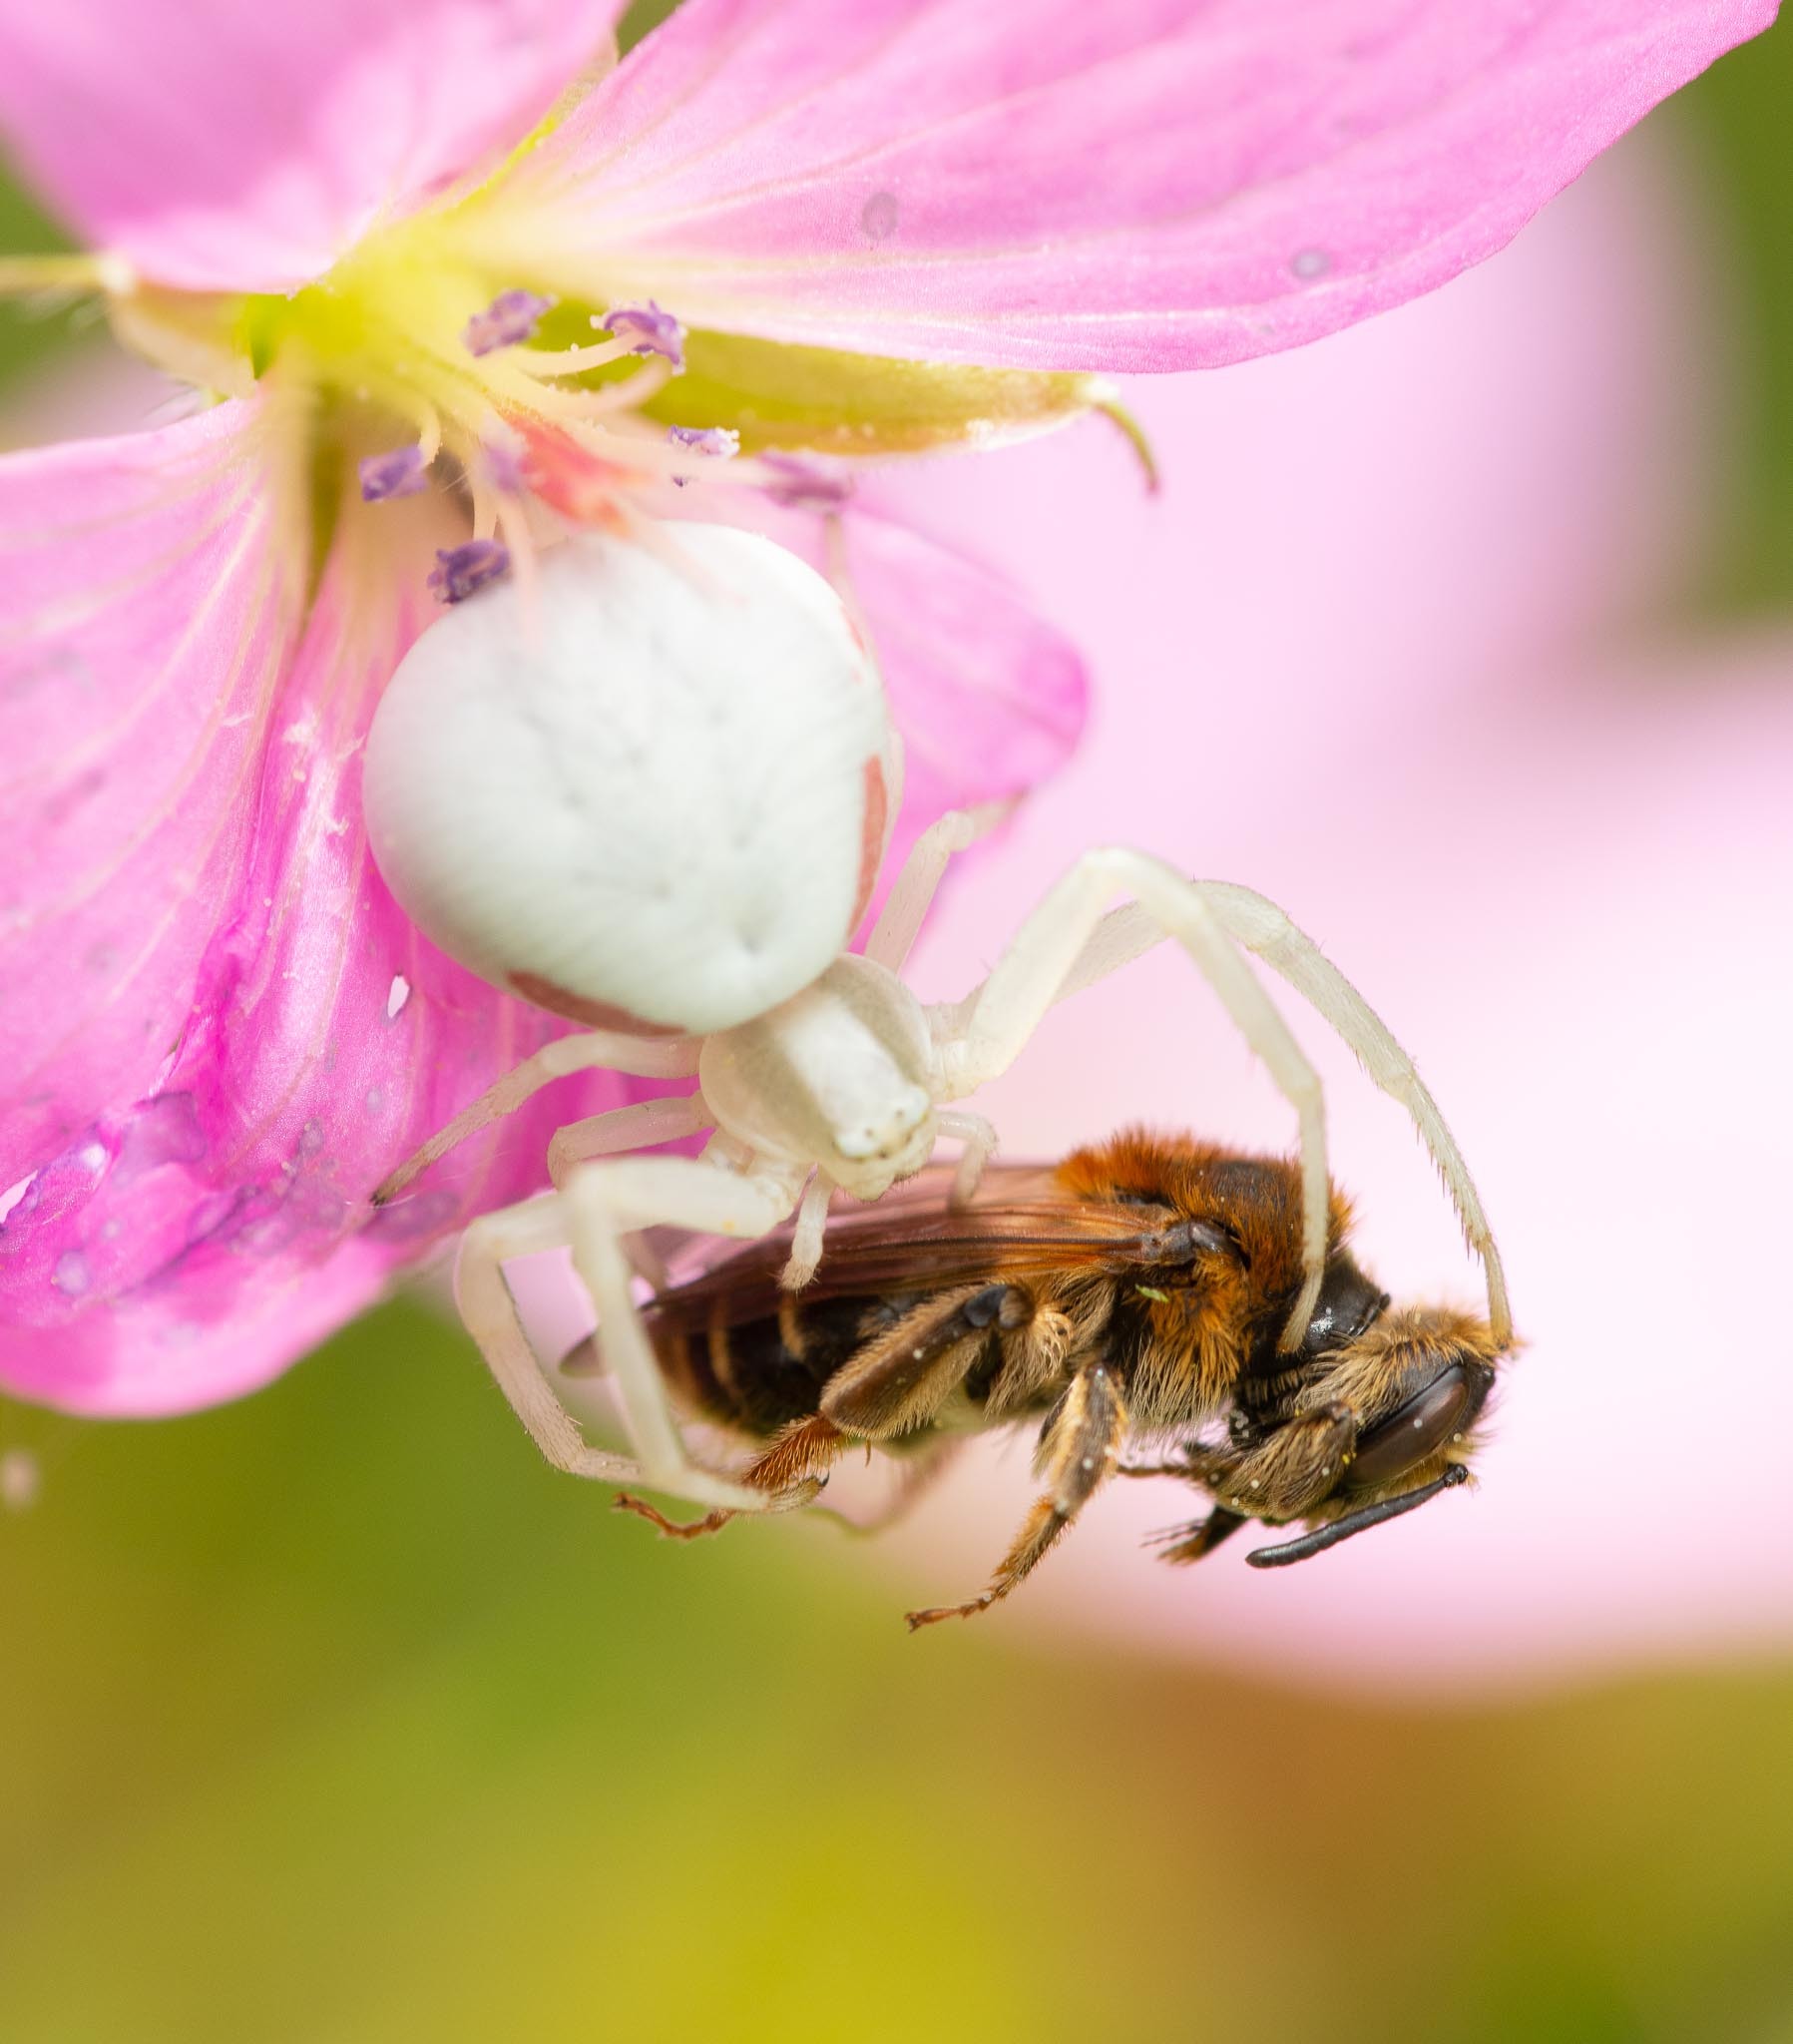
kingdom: Animalia
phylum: Arthropoda
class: Arachnida
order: Araneae
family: Thomisidae
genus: Misumena
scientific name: Misumena vatia
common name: Goldenrod crab spider
